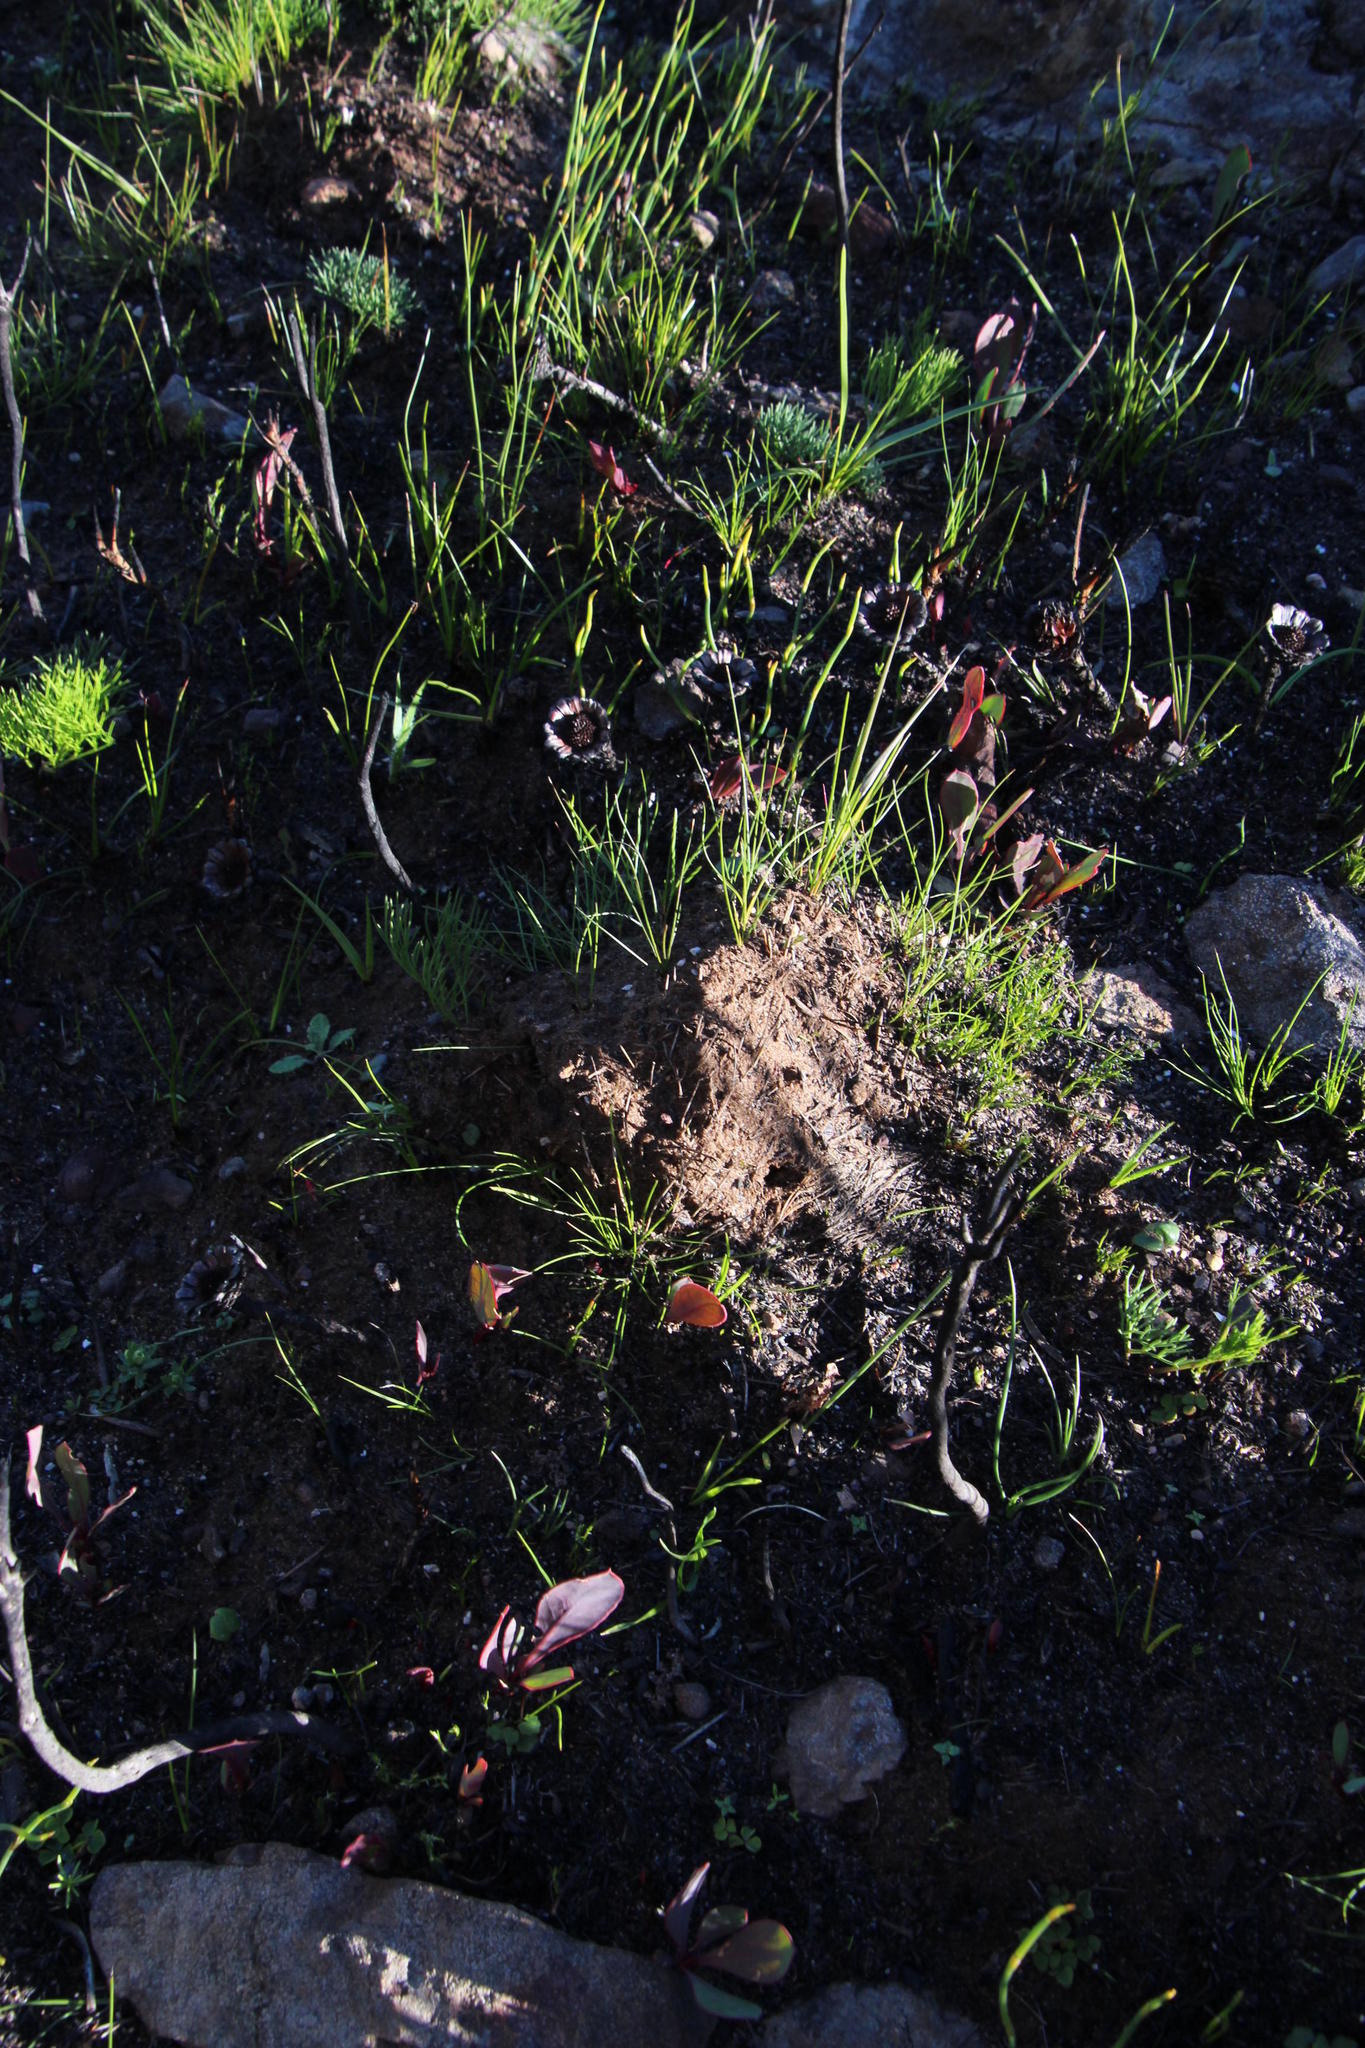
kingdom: Plantae
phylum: Tracheophyta
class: Magnoliopsida
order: Proteales
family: Proteaceae
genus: Protea
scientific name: Protea acaulos
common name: Common ground sugarbush
